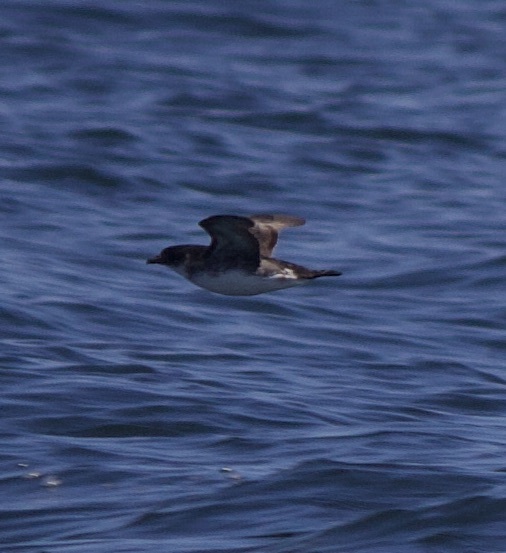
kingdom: Animalia
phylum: Chordata
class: Aves
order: Procellariiformes
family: Pelecanoididae
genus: Pelecanoides
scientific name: Pelecanoides garnotii
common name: Peruvian diving-petrel
